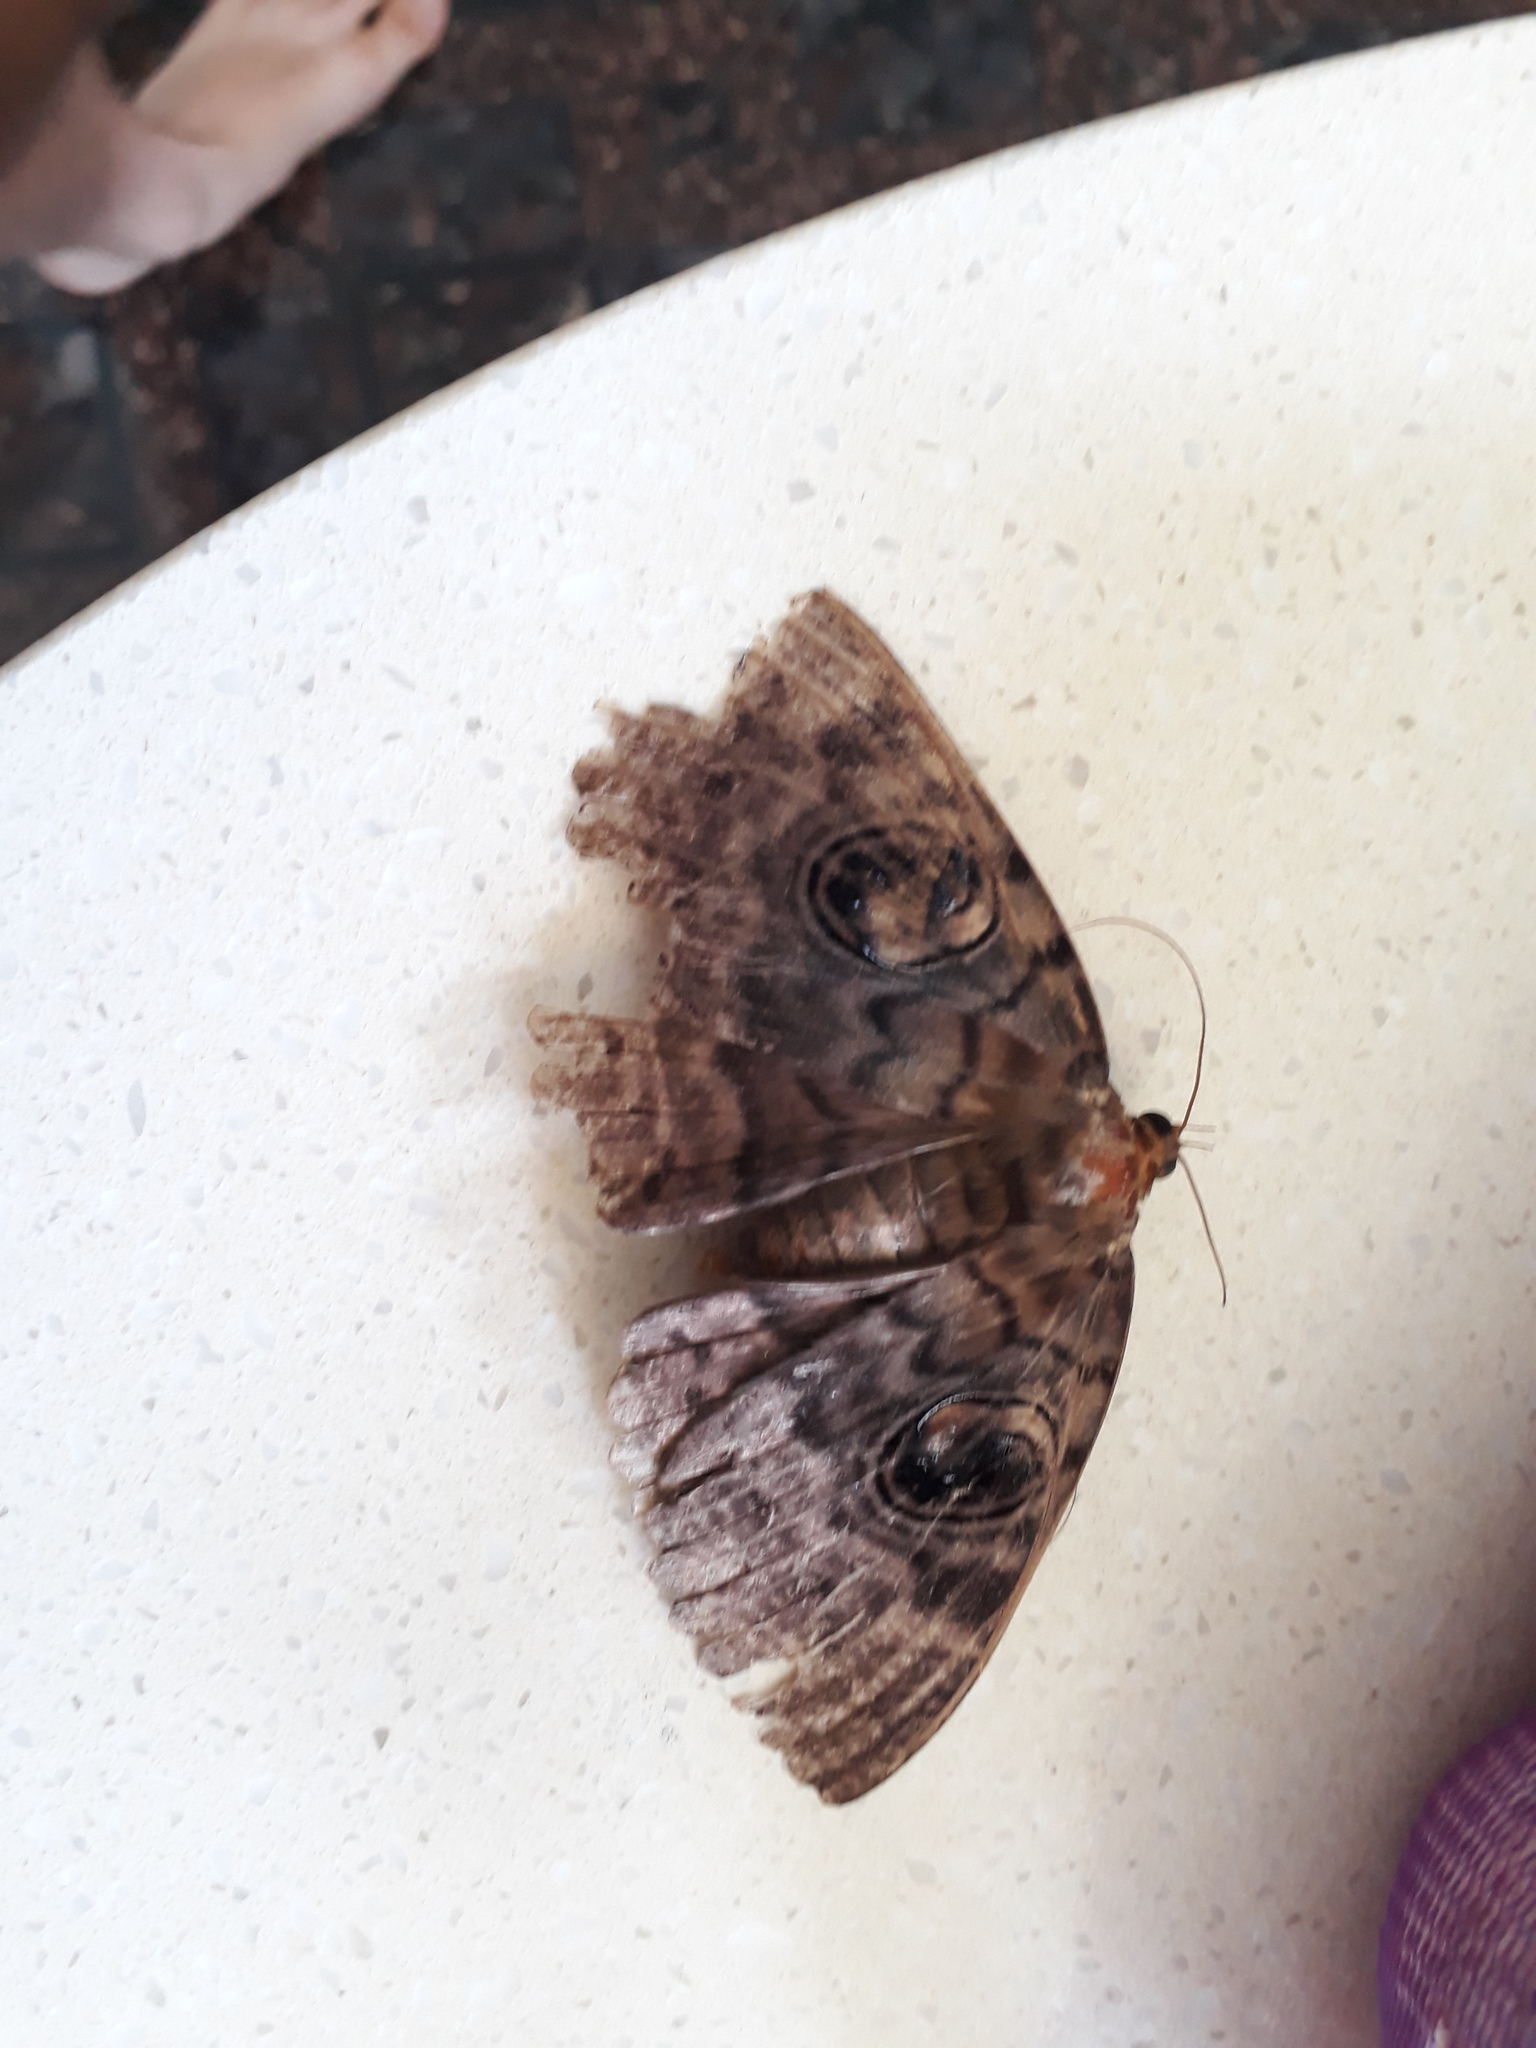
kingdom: Animalia
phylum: Arthropoda
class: Insecta
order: Lepidoptera
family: Erebidae
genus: Erebus
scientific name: Erebus walkeri
